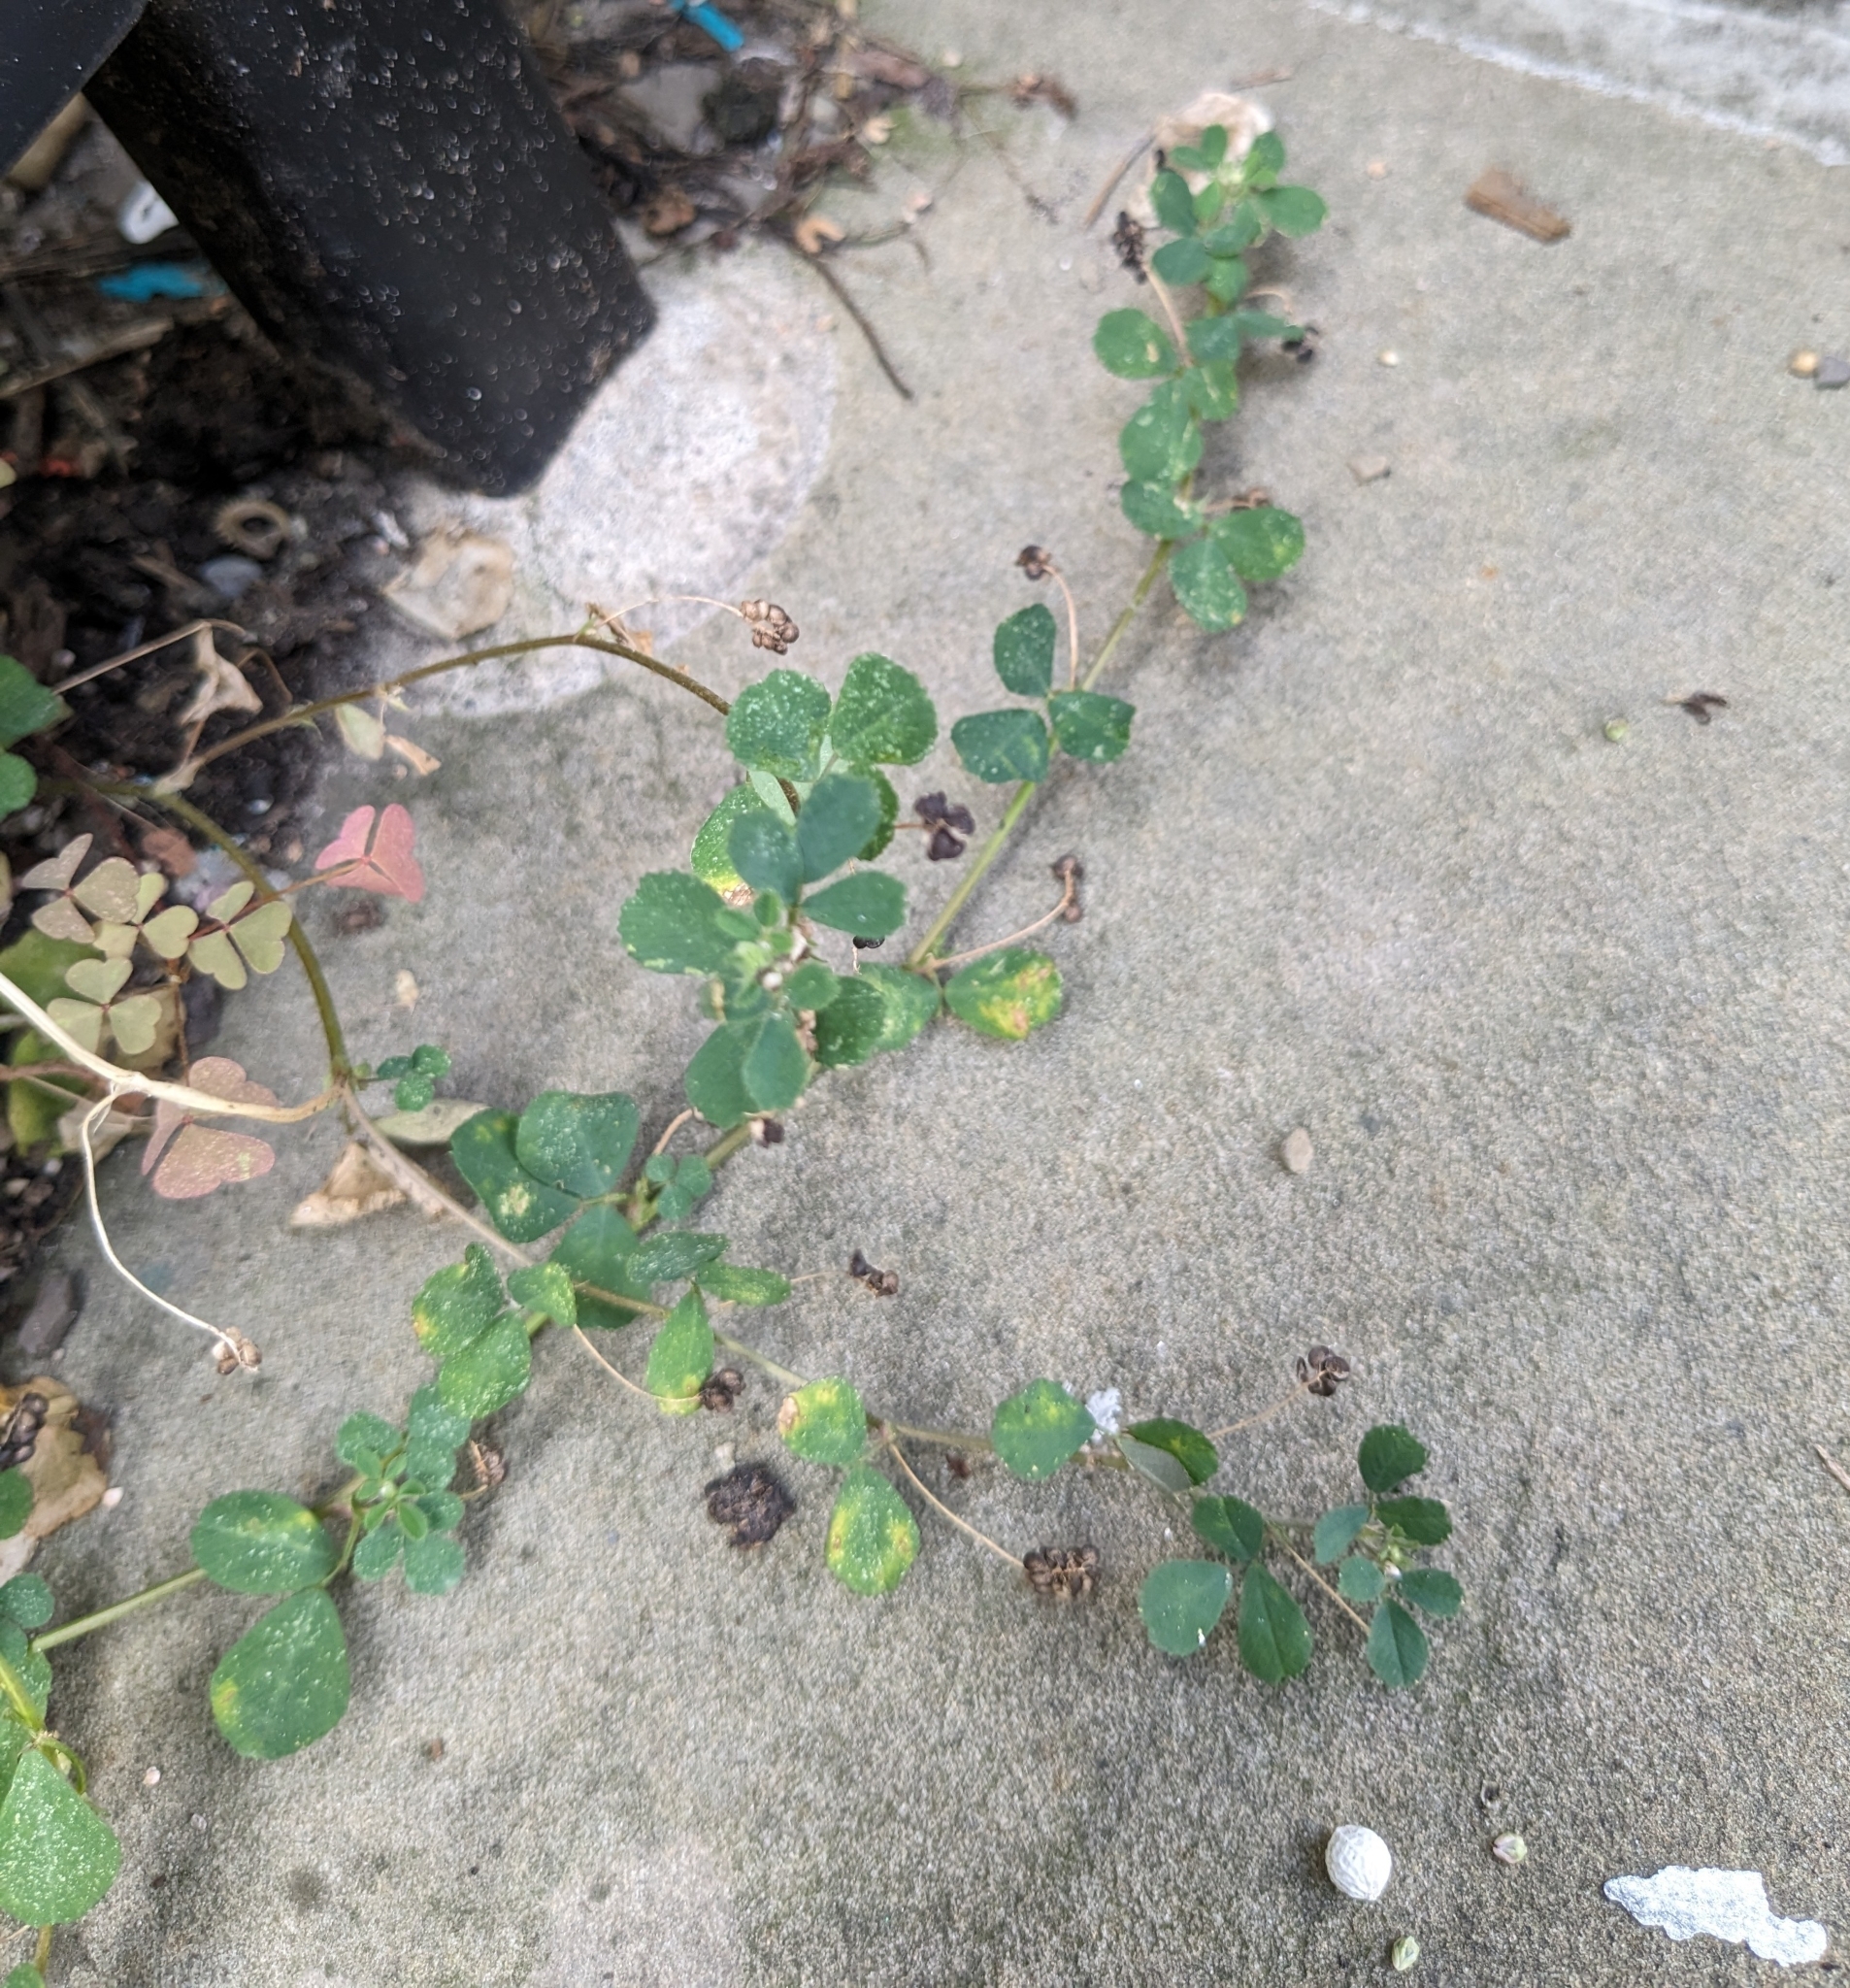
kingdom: Plantae
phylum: Tracheophyta
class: Magnoliopsida
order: Fabales
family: Fabaceae
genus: Medicago
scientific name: Medicago lupulina
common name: Black medick
